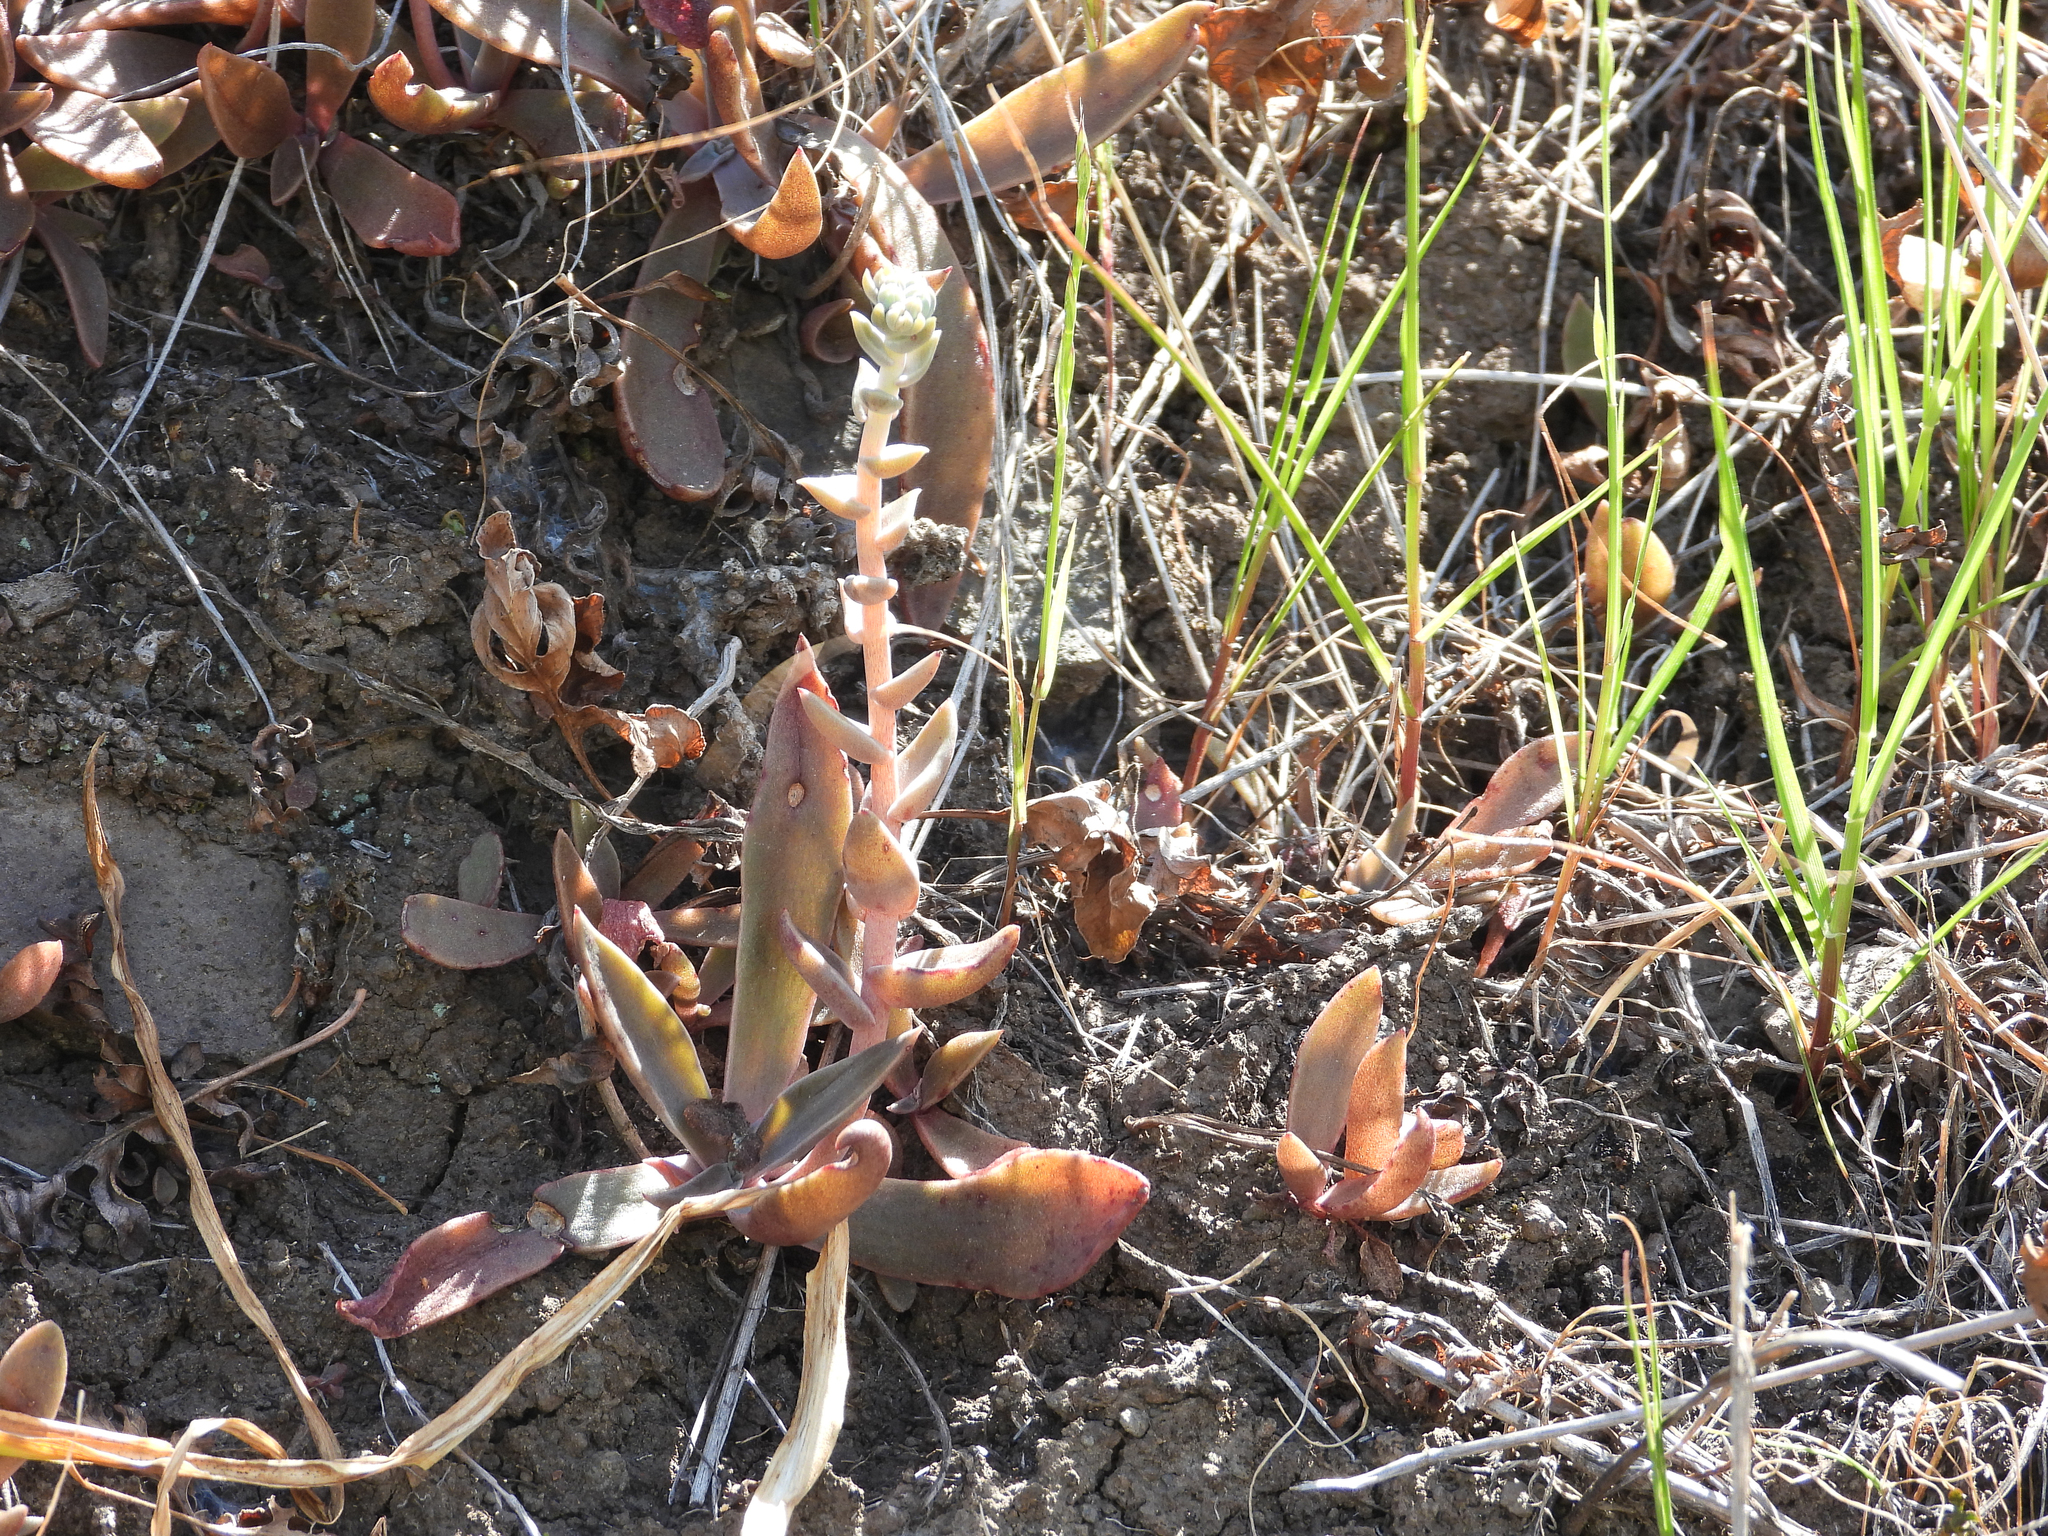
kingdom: Plantae
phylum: Tracheophyta
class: Magnoliopsida
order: Saxifragales
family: Crassulaceae
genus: Dudleya
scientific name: Dudleya parva
